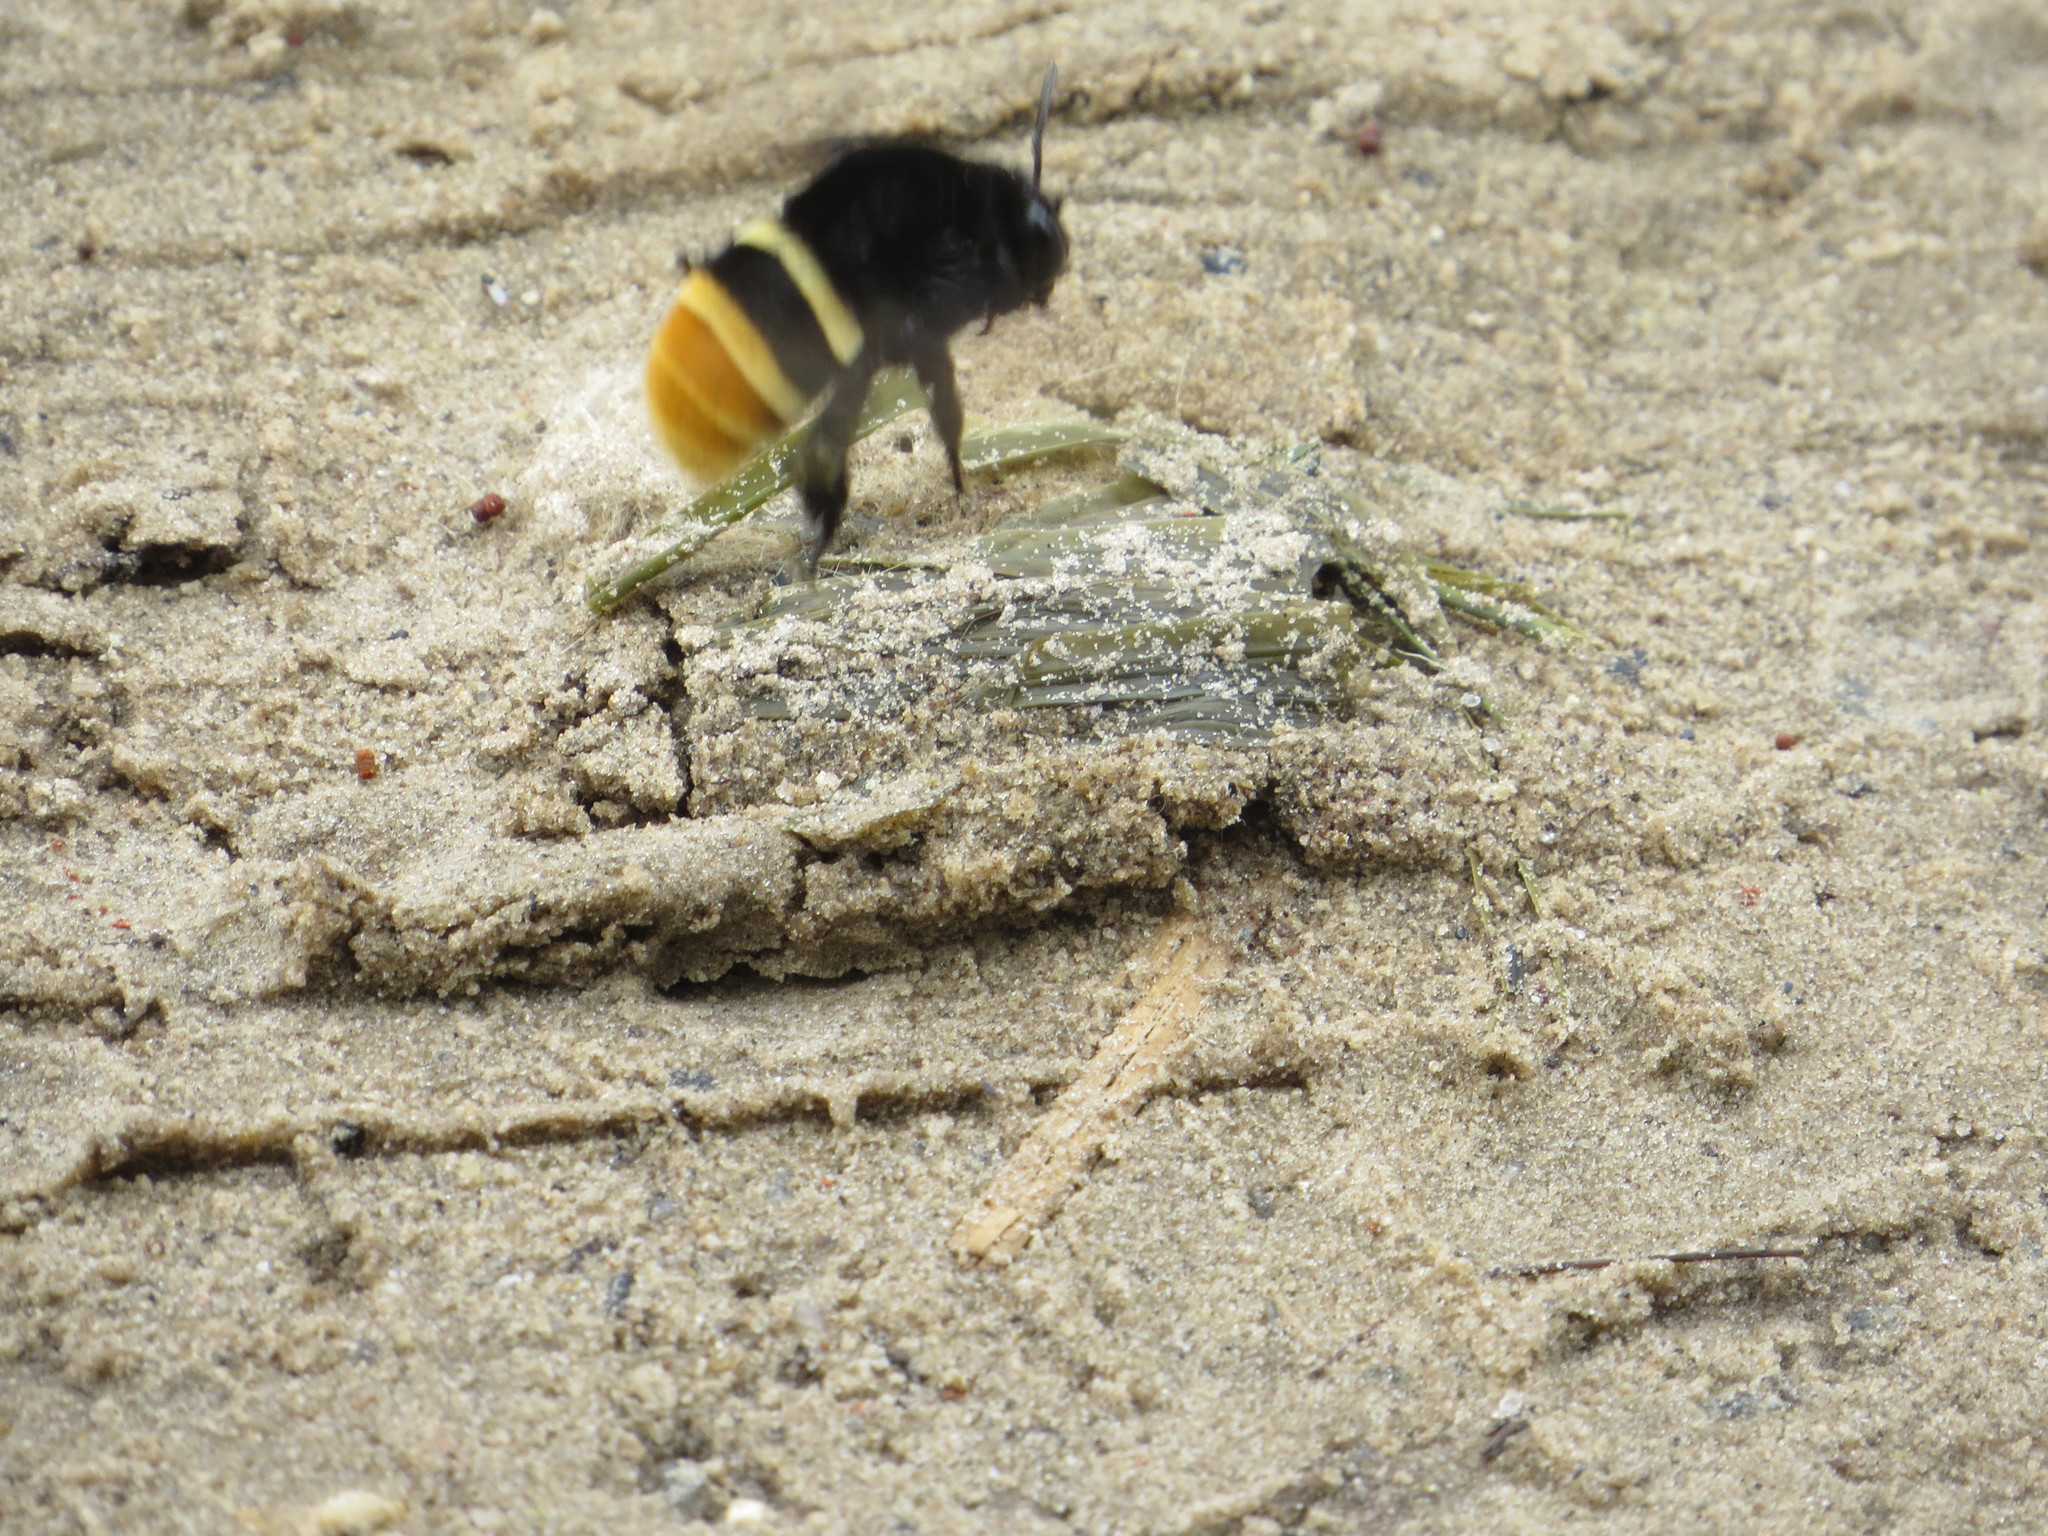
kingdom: Animalia
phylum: Arthropoda
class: Insecta
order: Hymenoptera
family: Apidae
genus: Eulaema
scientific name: Eulaema cingulata
